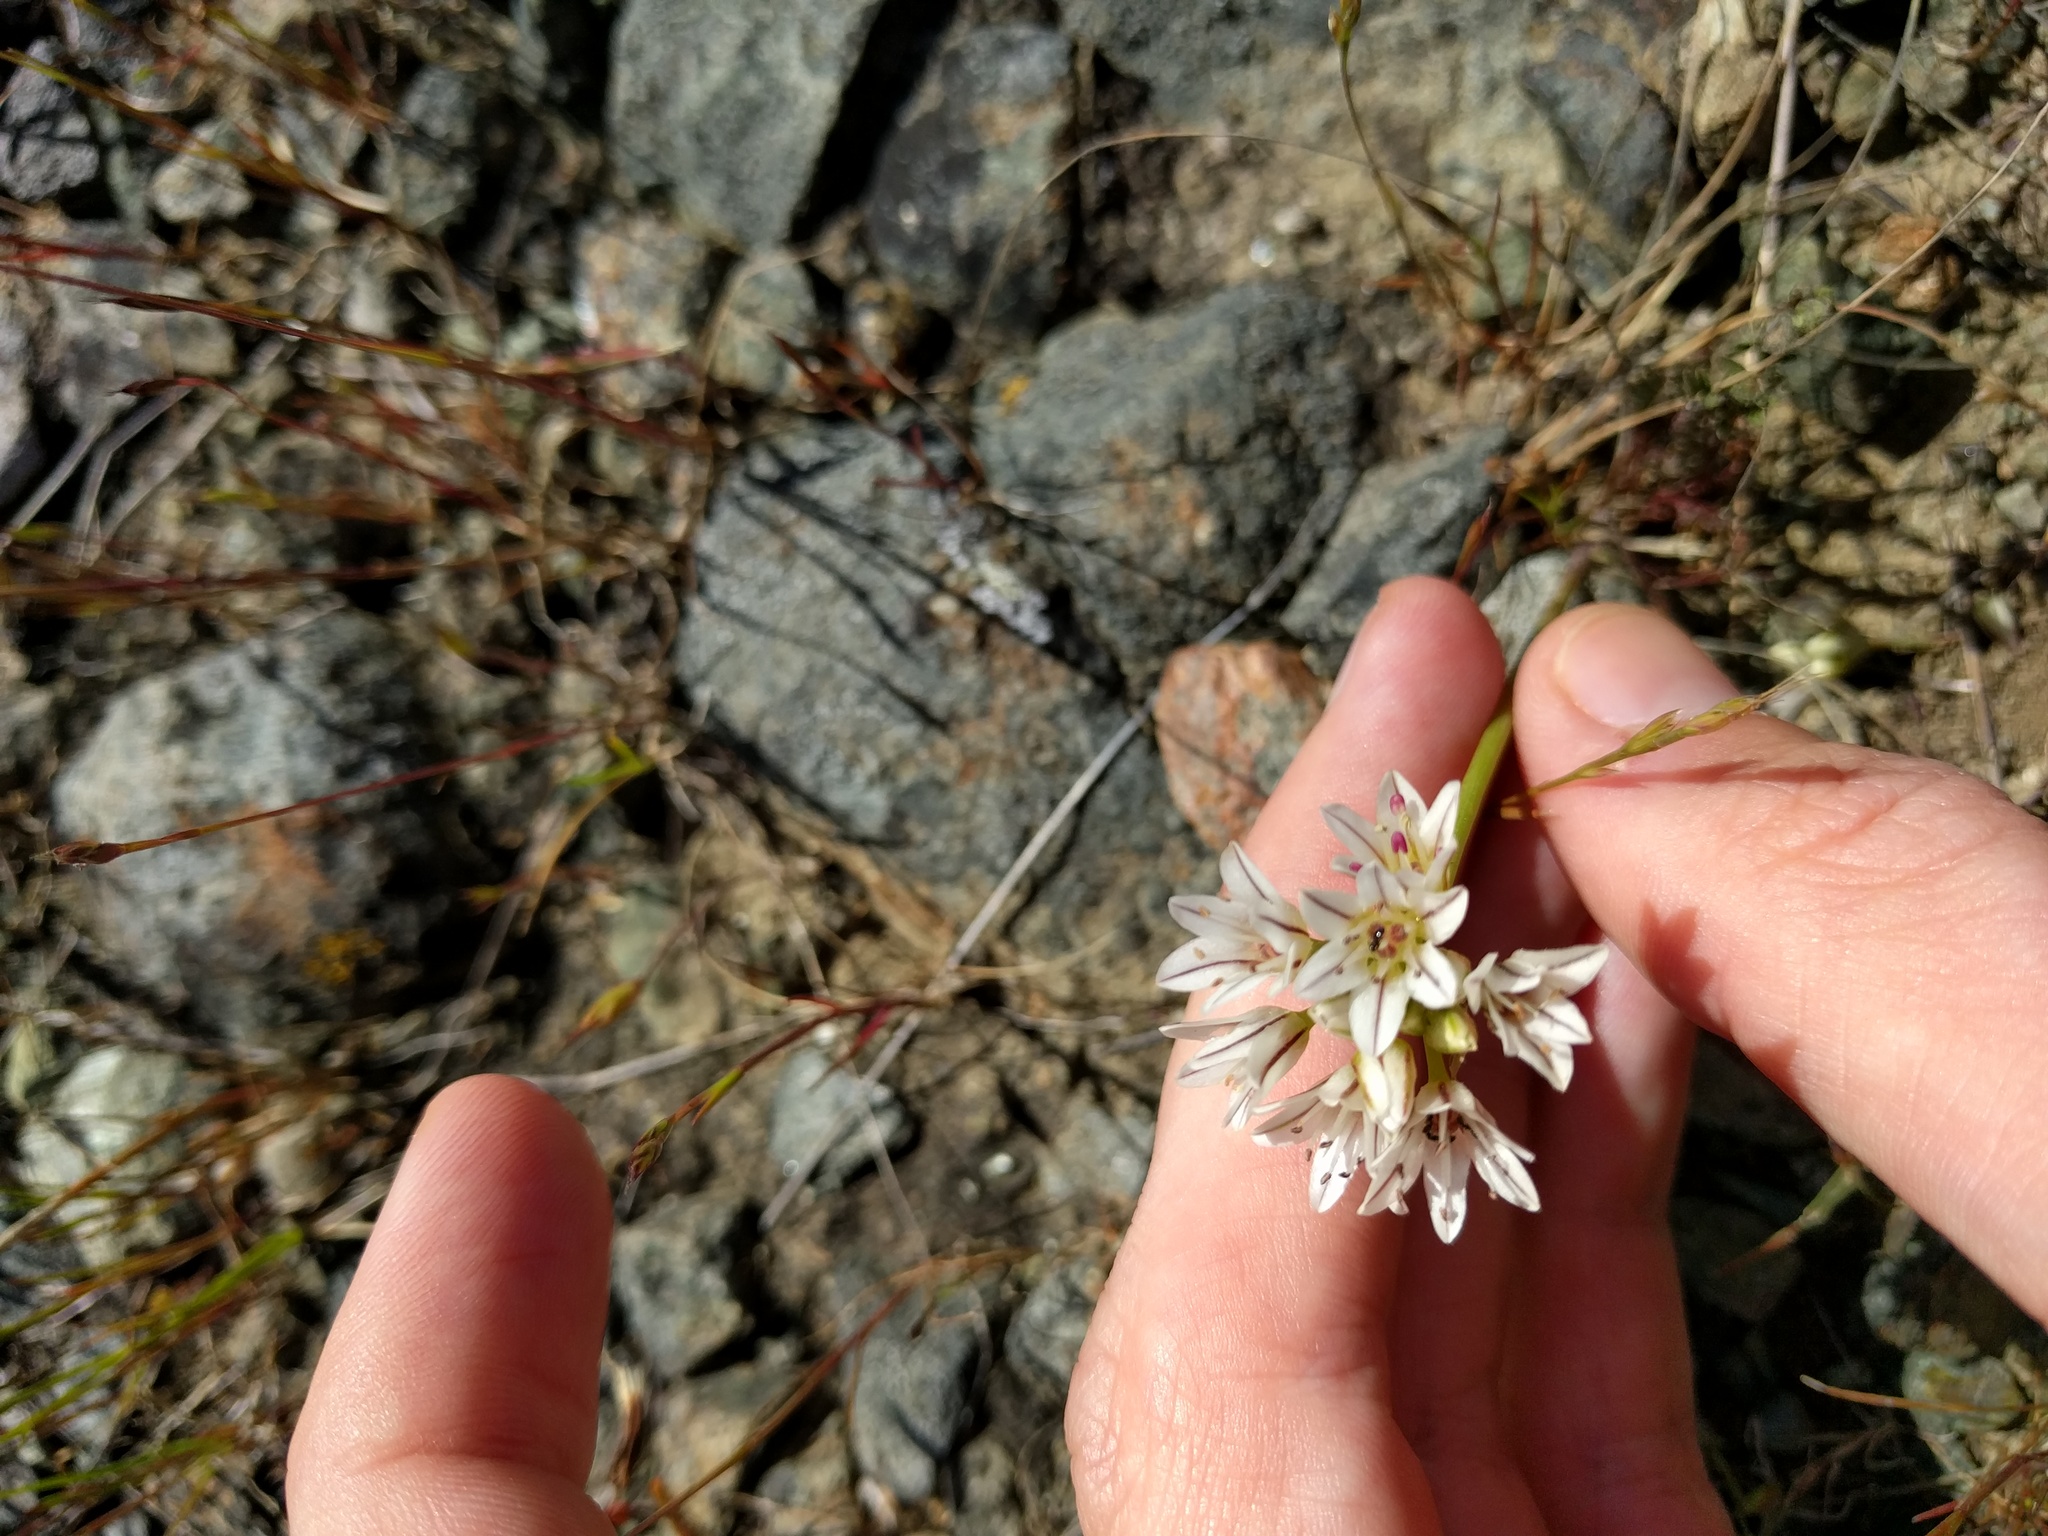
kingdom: Plantae
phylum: Tracheophyta
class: Liliopsida
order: Asparagales
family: Amaryllidaceae
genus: Allium
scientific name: Allium lacunosum
